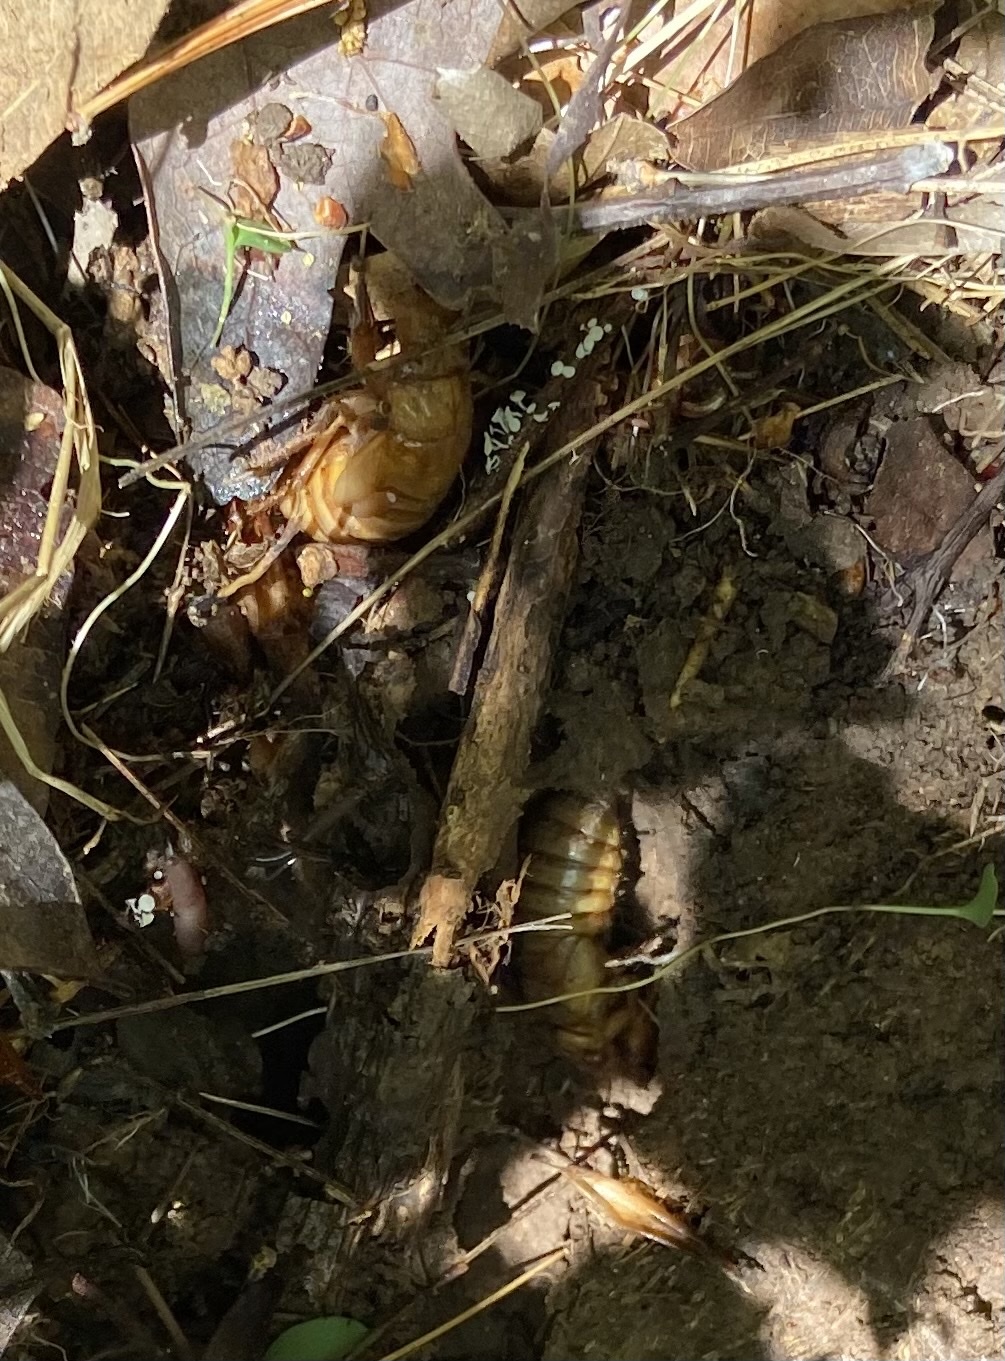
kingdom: Animalia
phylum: Arthropoda
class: Insecta
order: Hemiptera
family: Cicadidae
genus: Magicicada
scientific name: Magicicada
